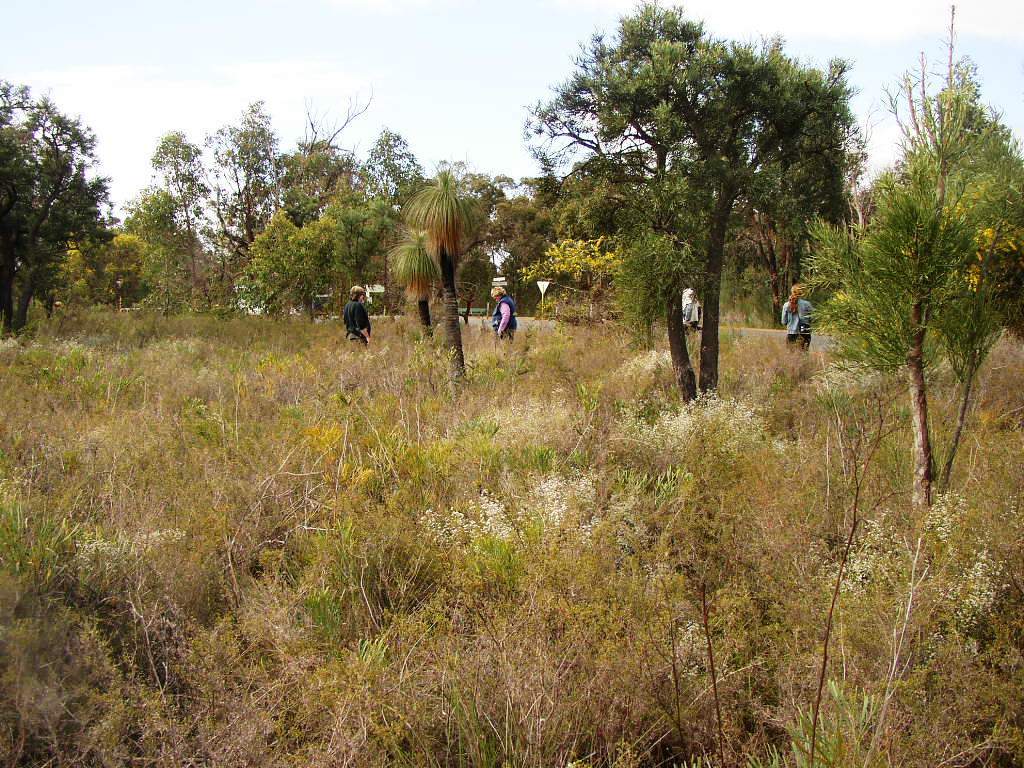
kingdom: Plantae
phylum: Tracheophyta
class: Magnoliopsida
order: Santalales
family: Loranthaceae
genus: Nuytsia
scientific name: Nuytsia floribunda
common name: Western australian christmastree
